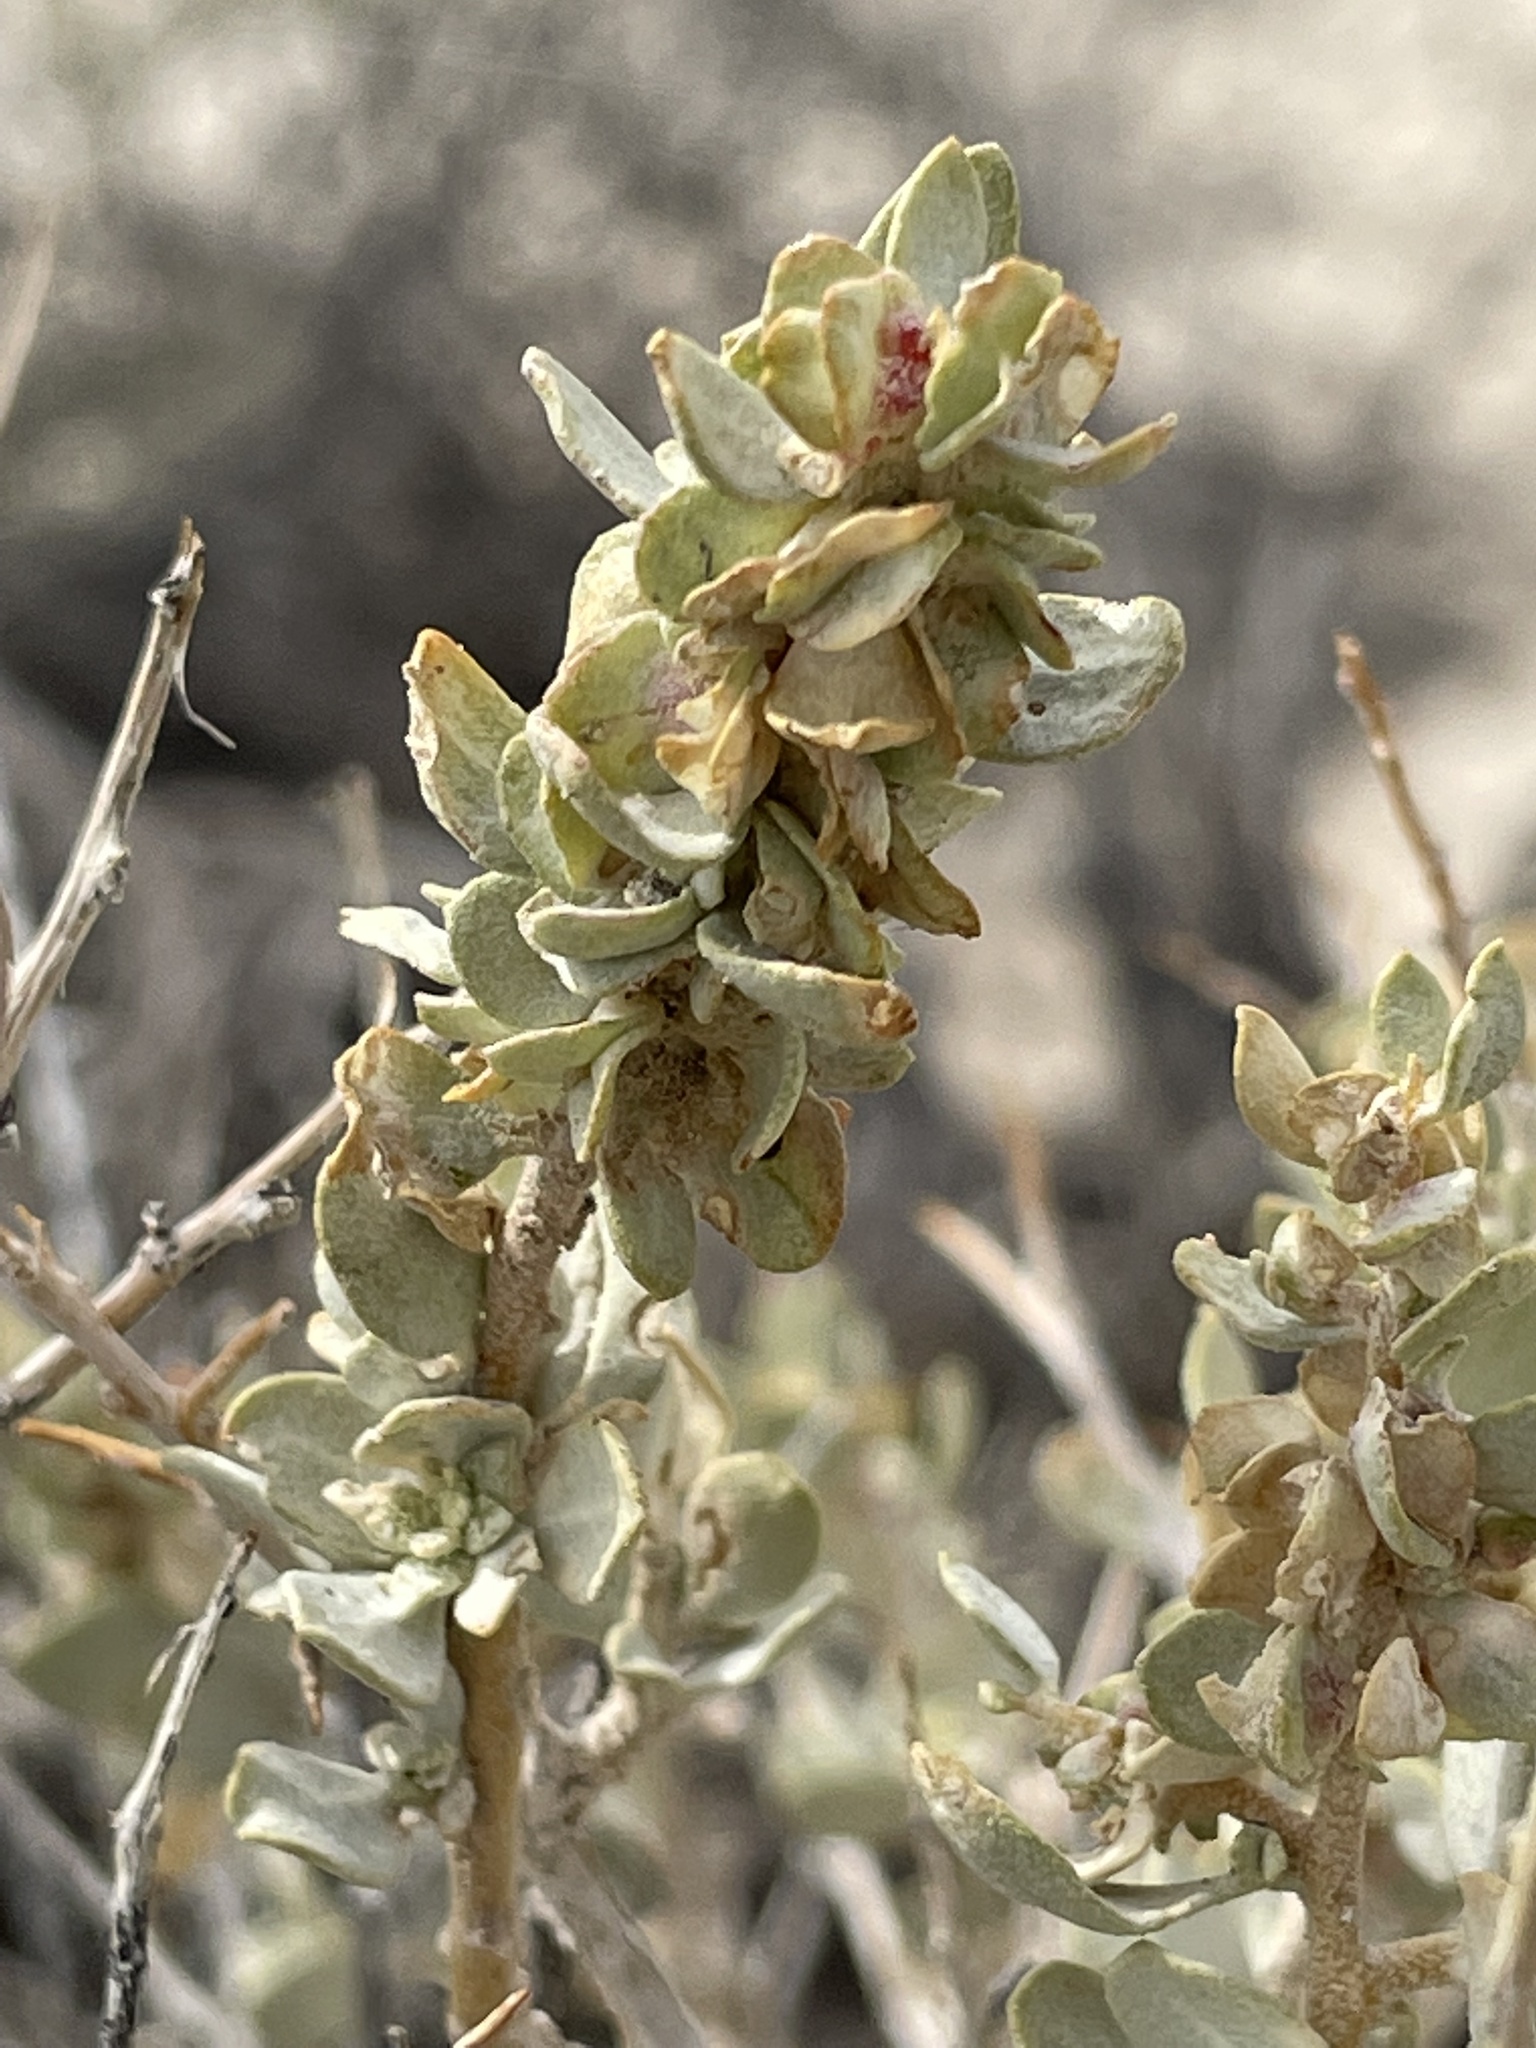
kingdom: Plantae
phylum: Tracheophyta
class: Magnoliopsida
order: Caryophyllales
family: Amaranthaceae
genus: Atriplex
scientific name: Atriplex confertifolia
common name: Shadscale
